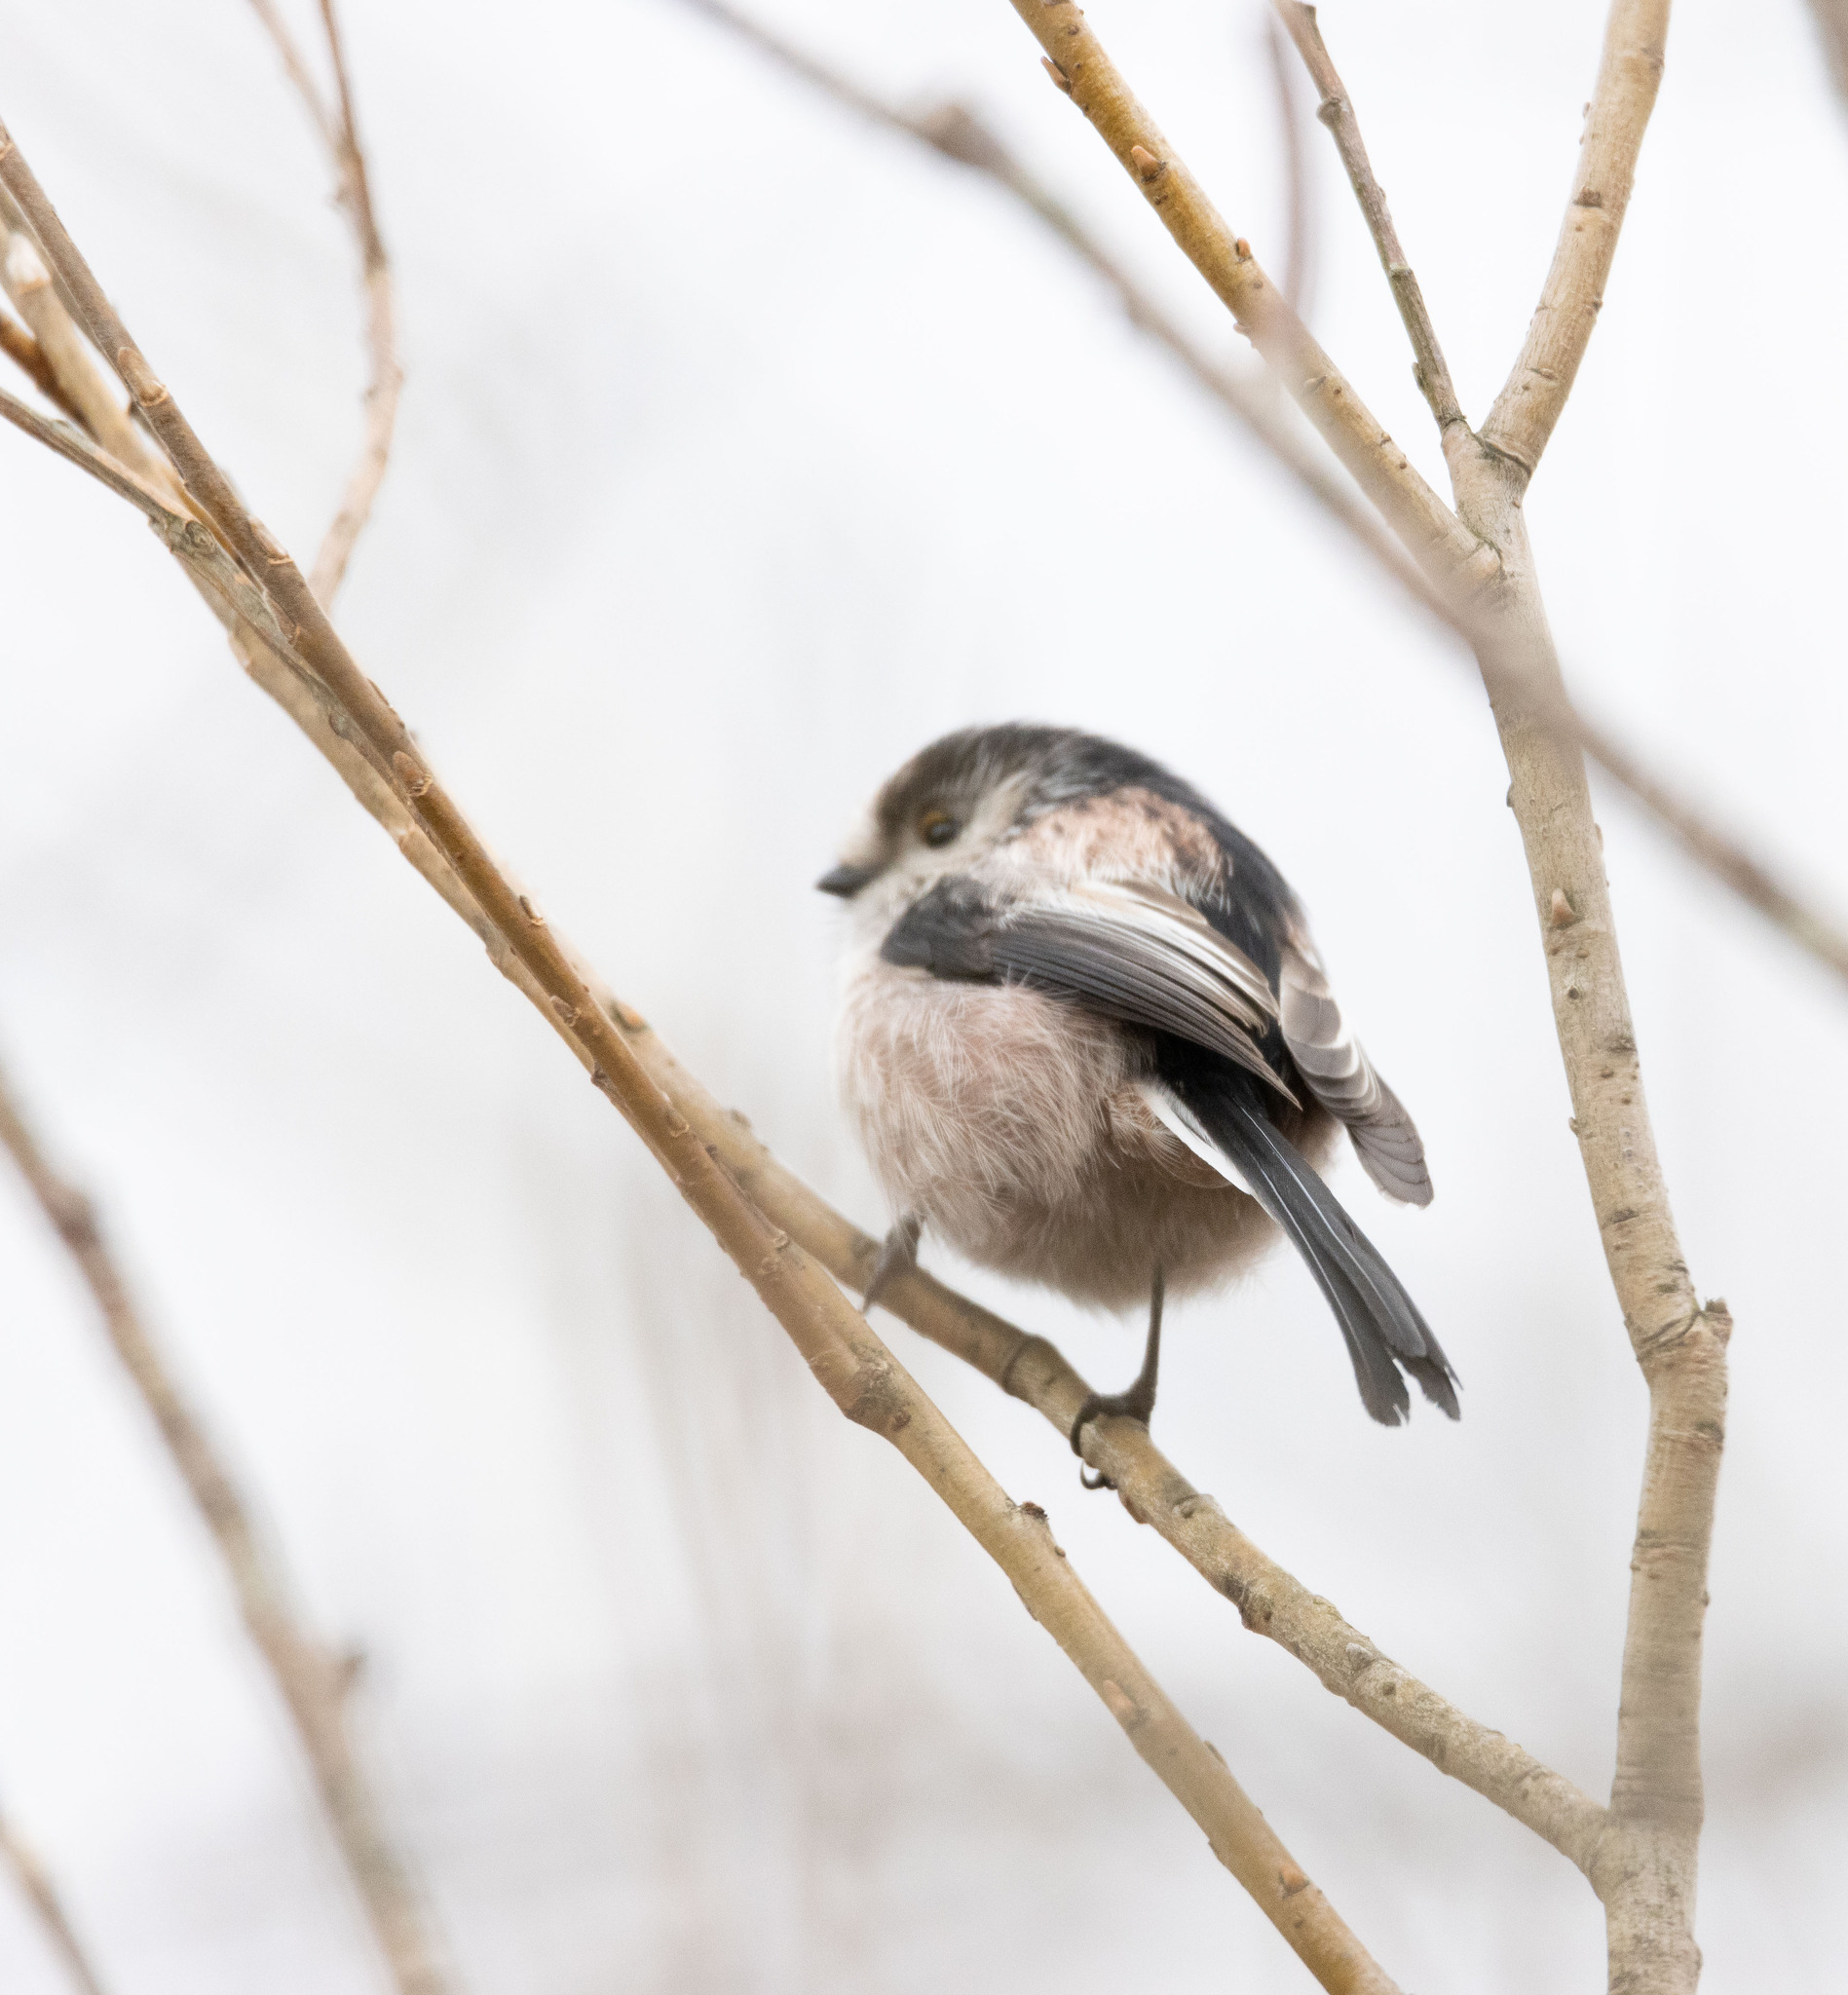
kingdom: Animalia
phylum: Chordata
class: Aves
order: Passeriformes
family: Aegithalidae
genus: Aegithalos
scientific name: Aegithalos caudatus
